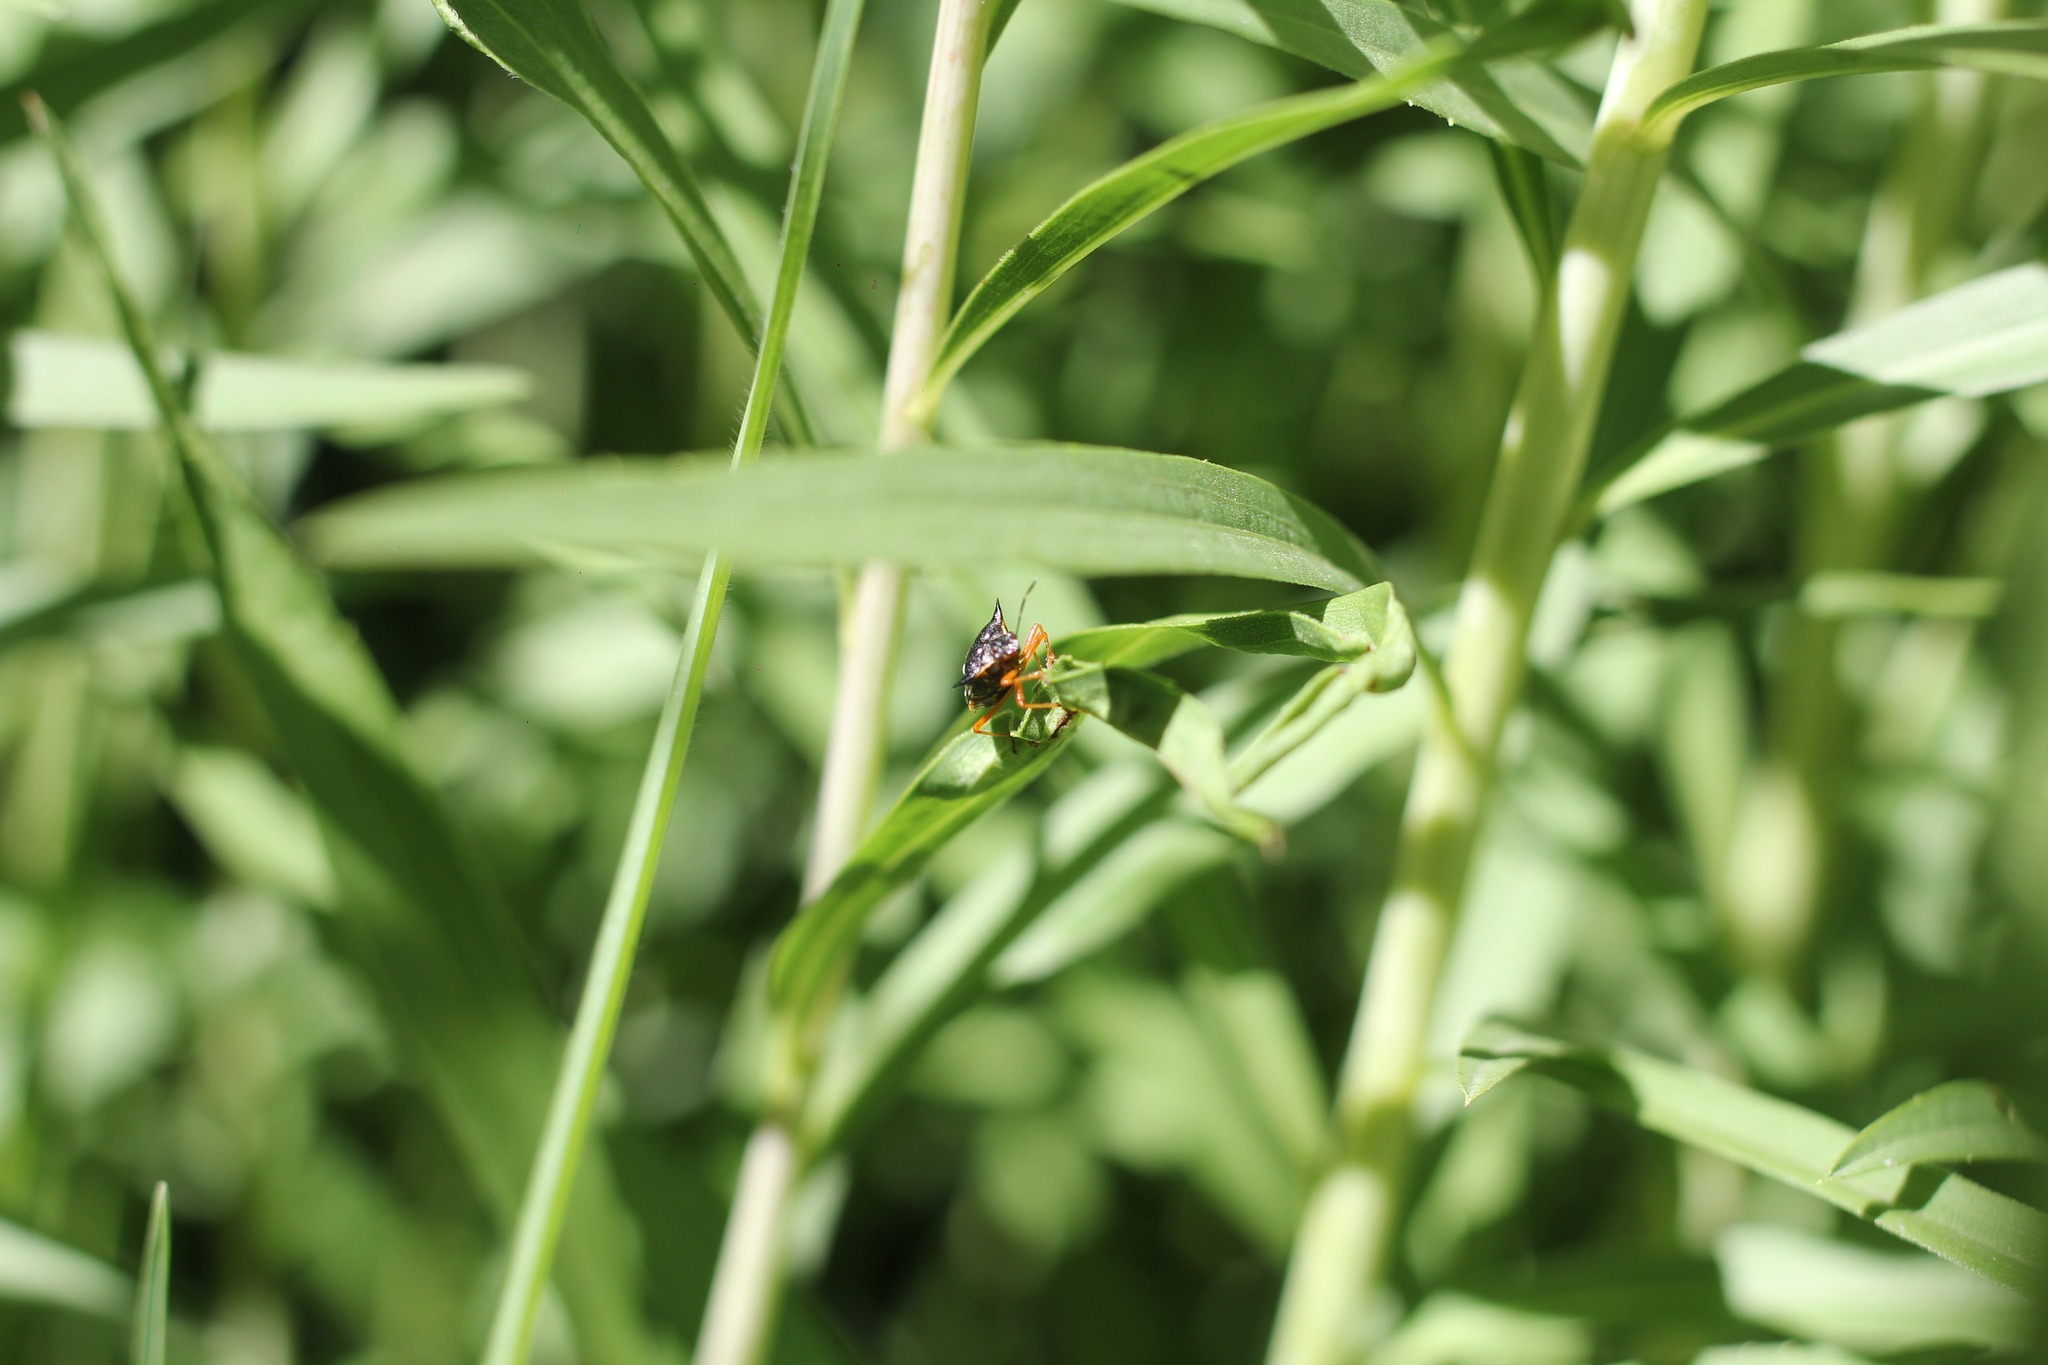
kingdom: Animalia
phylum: Arthropoda
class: Insecta
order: Hemiptera
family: Pentatomidae
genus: Mormidea
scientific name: Mormidea v-luteum
